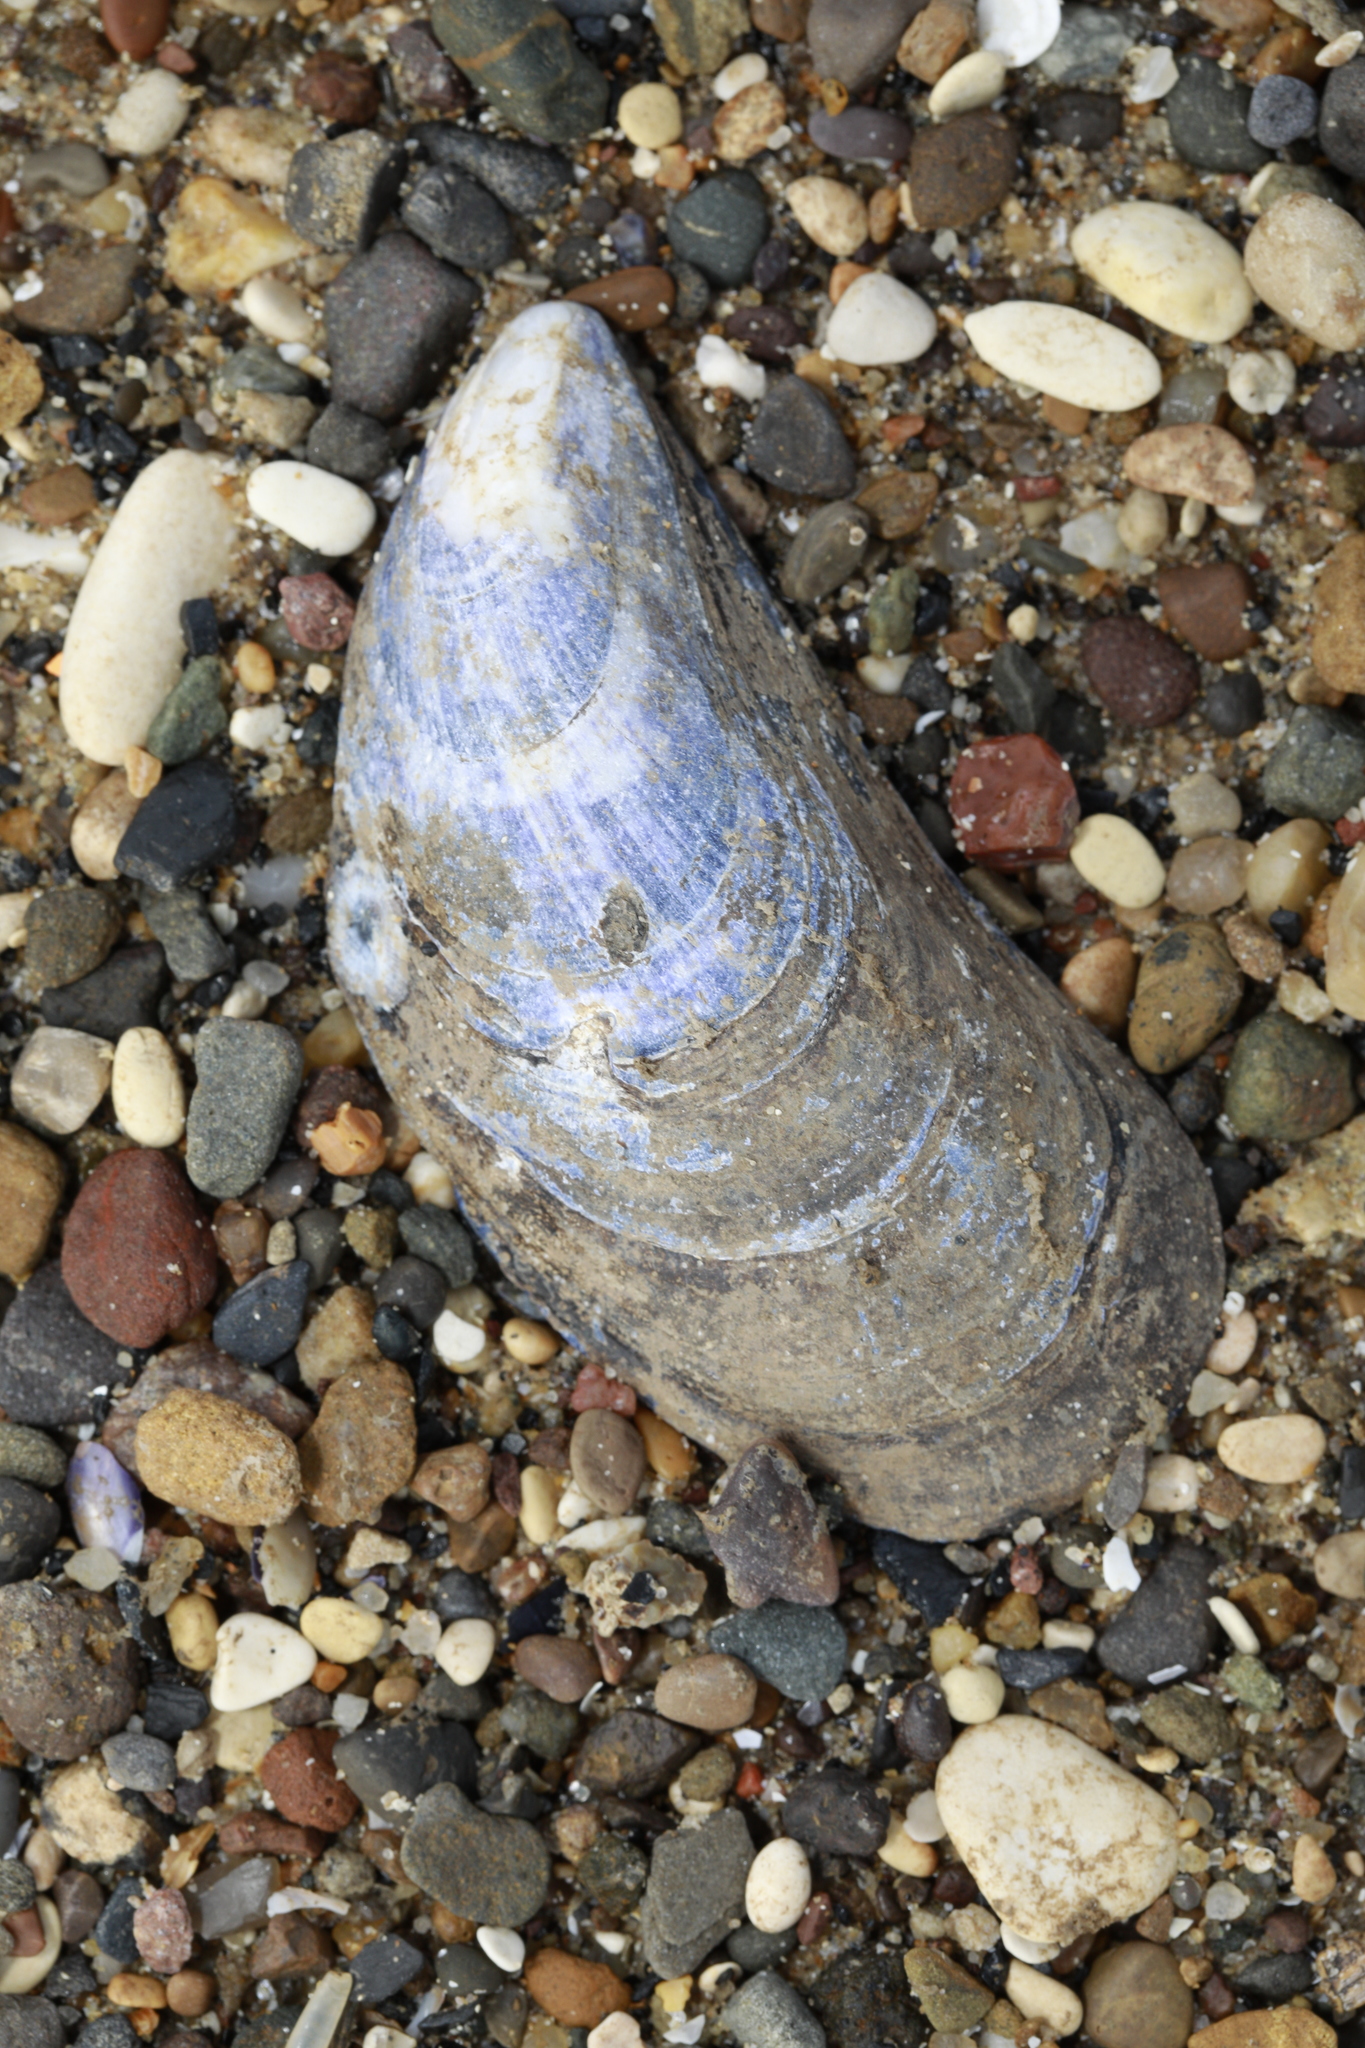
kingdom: Animalia
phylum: Mollusca
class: Bivalvia
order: Mytilida
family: Mytilidae
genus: Mytilus
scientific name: Mytilus edulis
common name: Blue mussel
